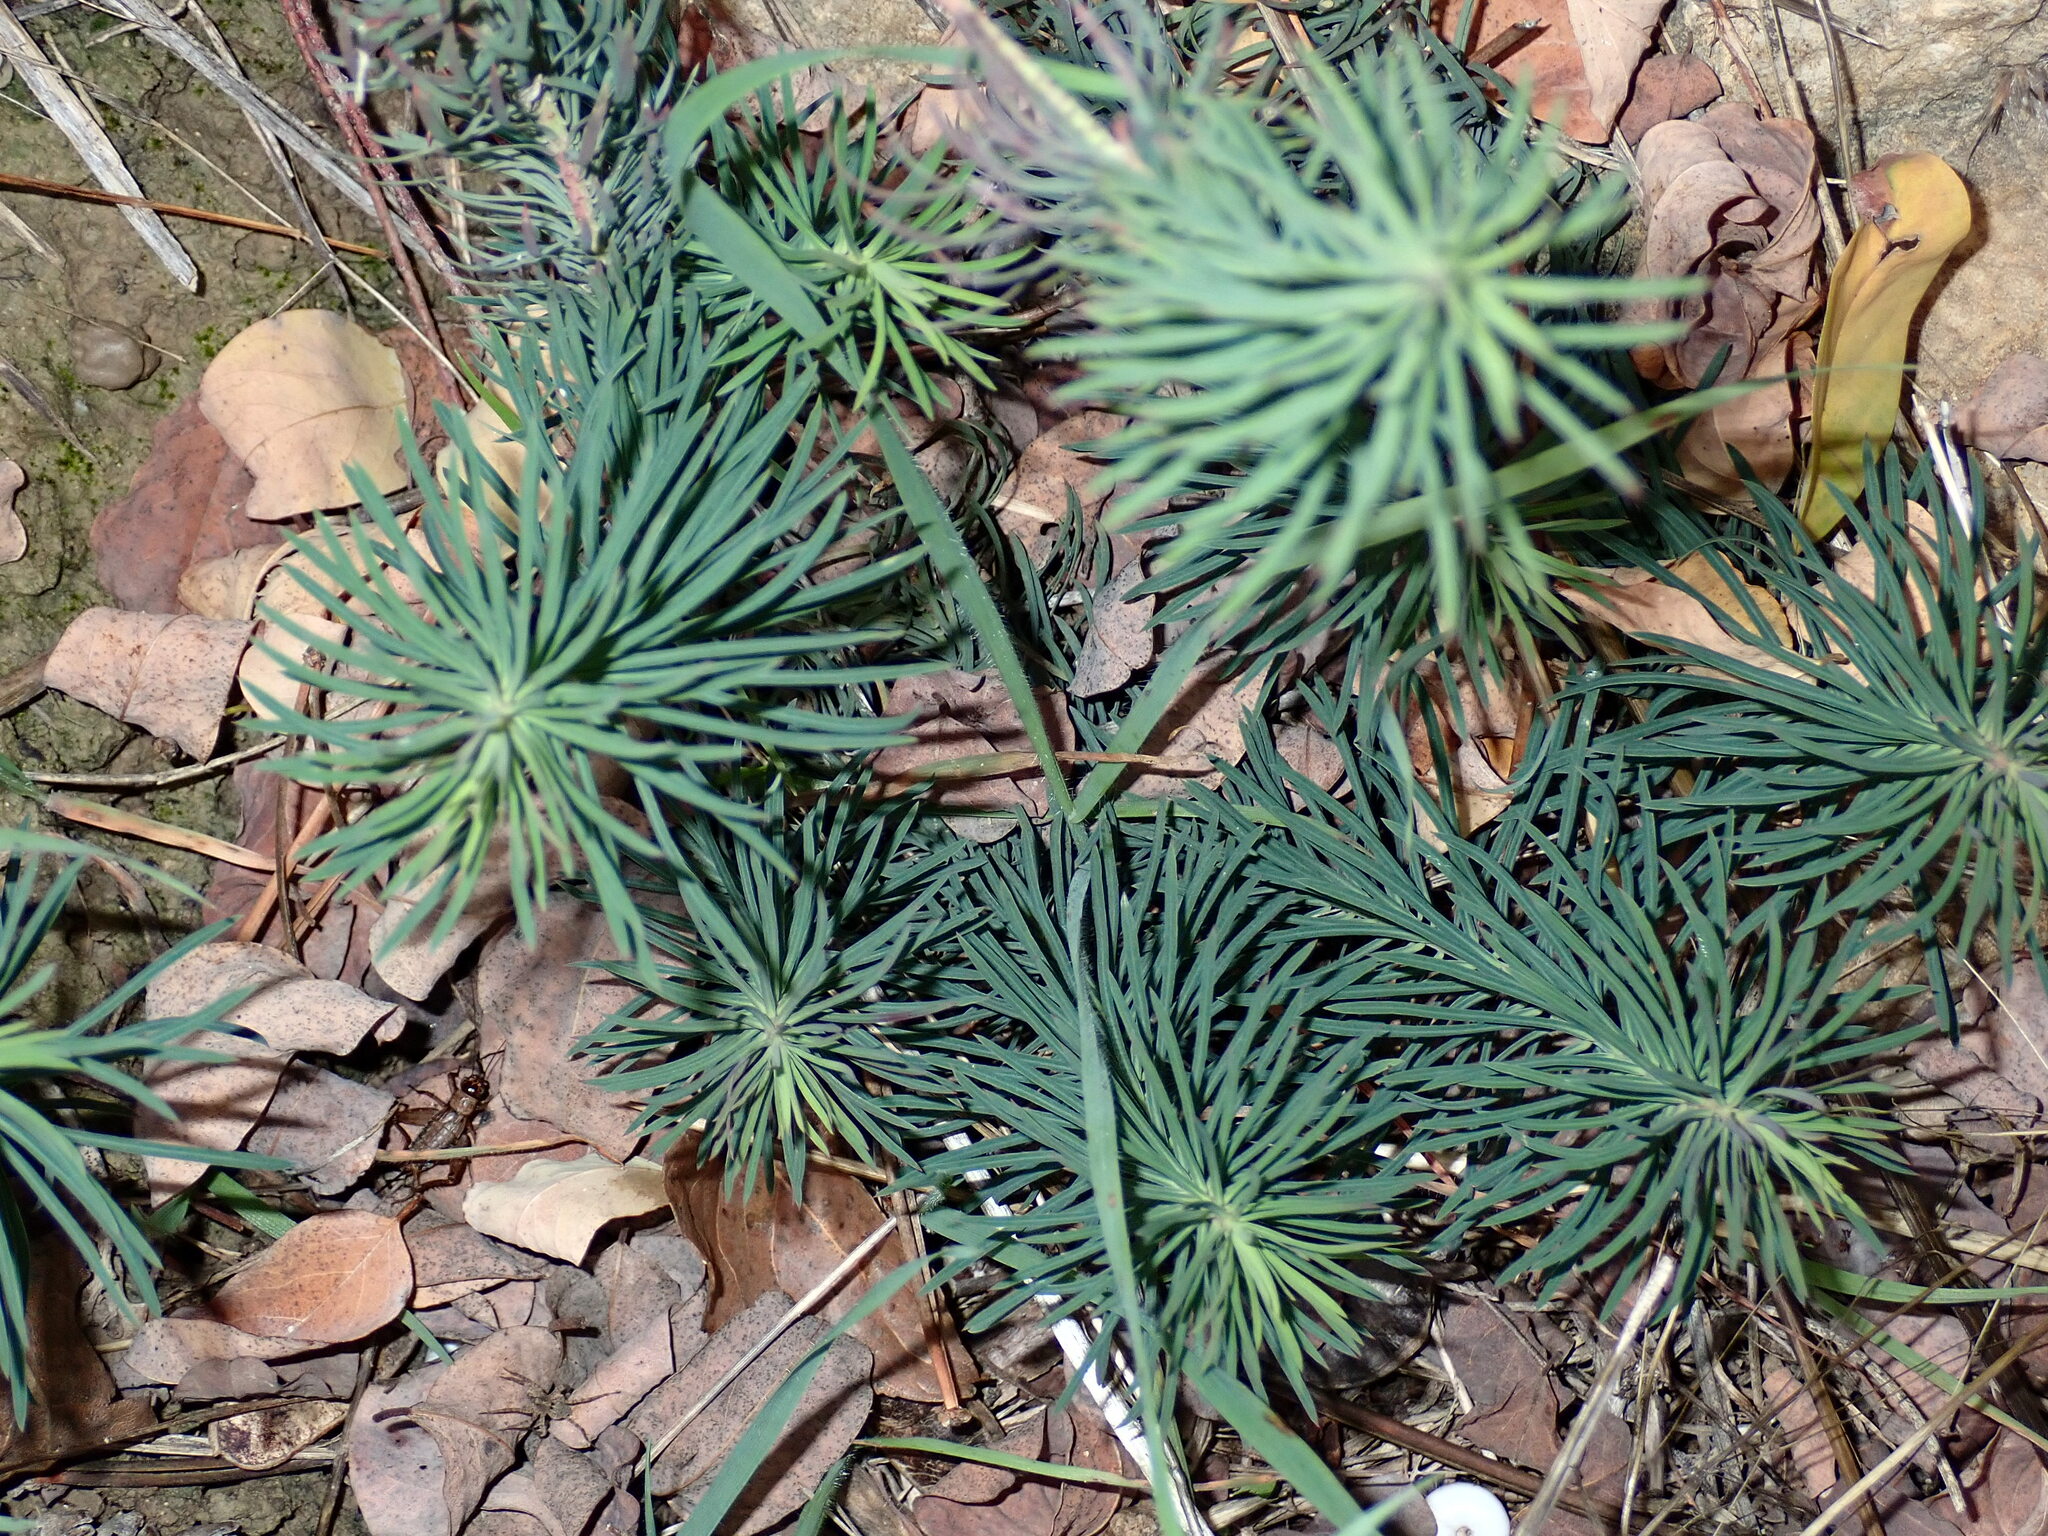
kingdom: Plantae
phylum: Tracheophyta
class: Magnoliopsida
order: Malpighiales
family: Euphorbiaceae
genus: Euphorbia
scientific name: Euphorbia cyparissias
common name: Cypress spurge
